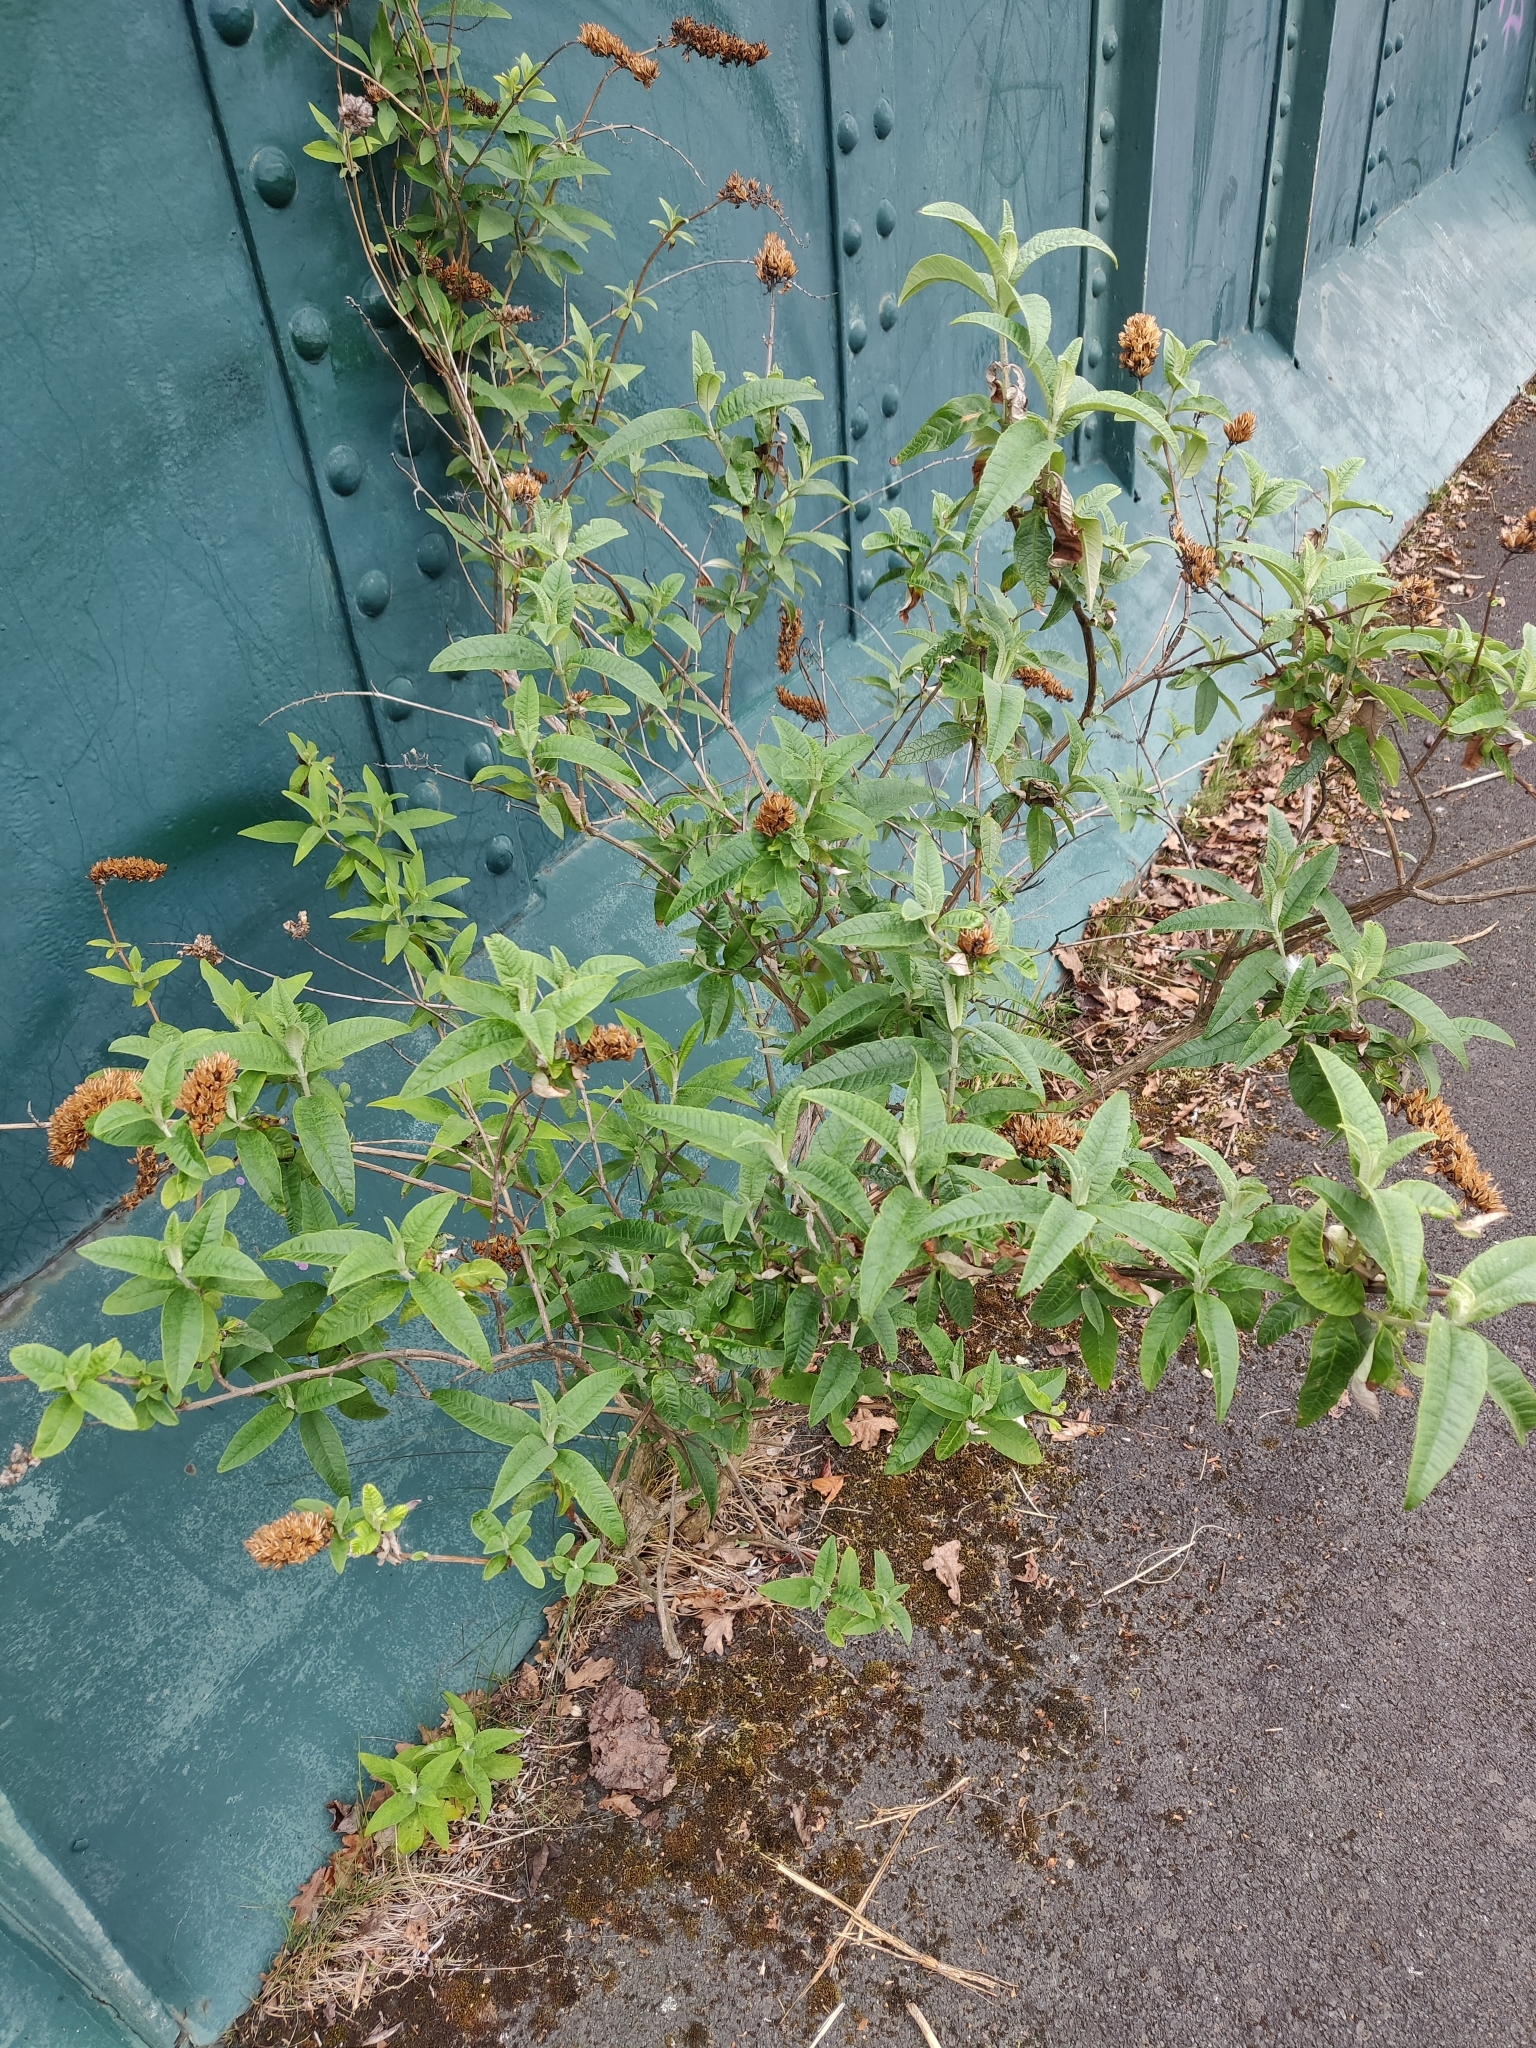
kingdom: Plantae
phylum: Tracheophyta
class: Magnoliopsida
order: Lamiales
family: Scrophulariaceae
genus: Buddleja
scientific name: Buddleja davidii
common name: Butterfly-bush
